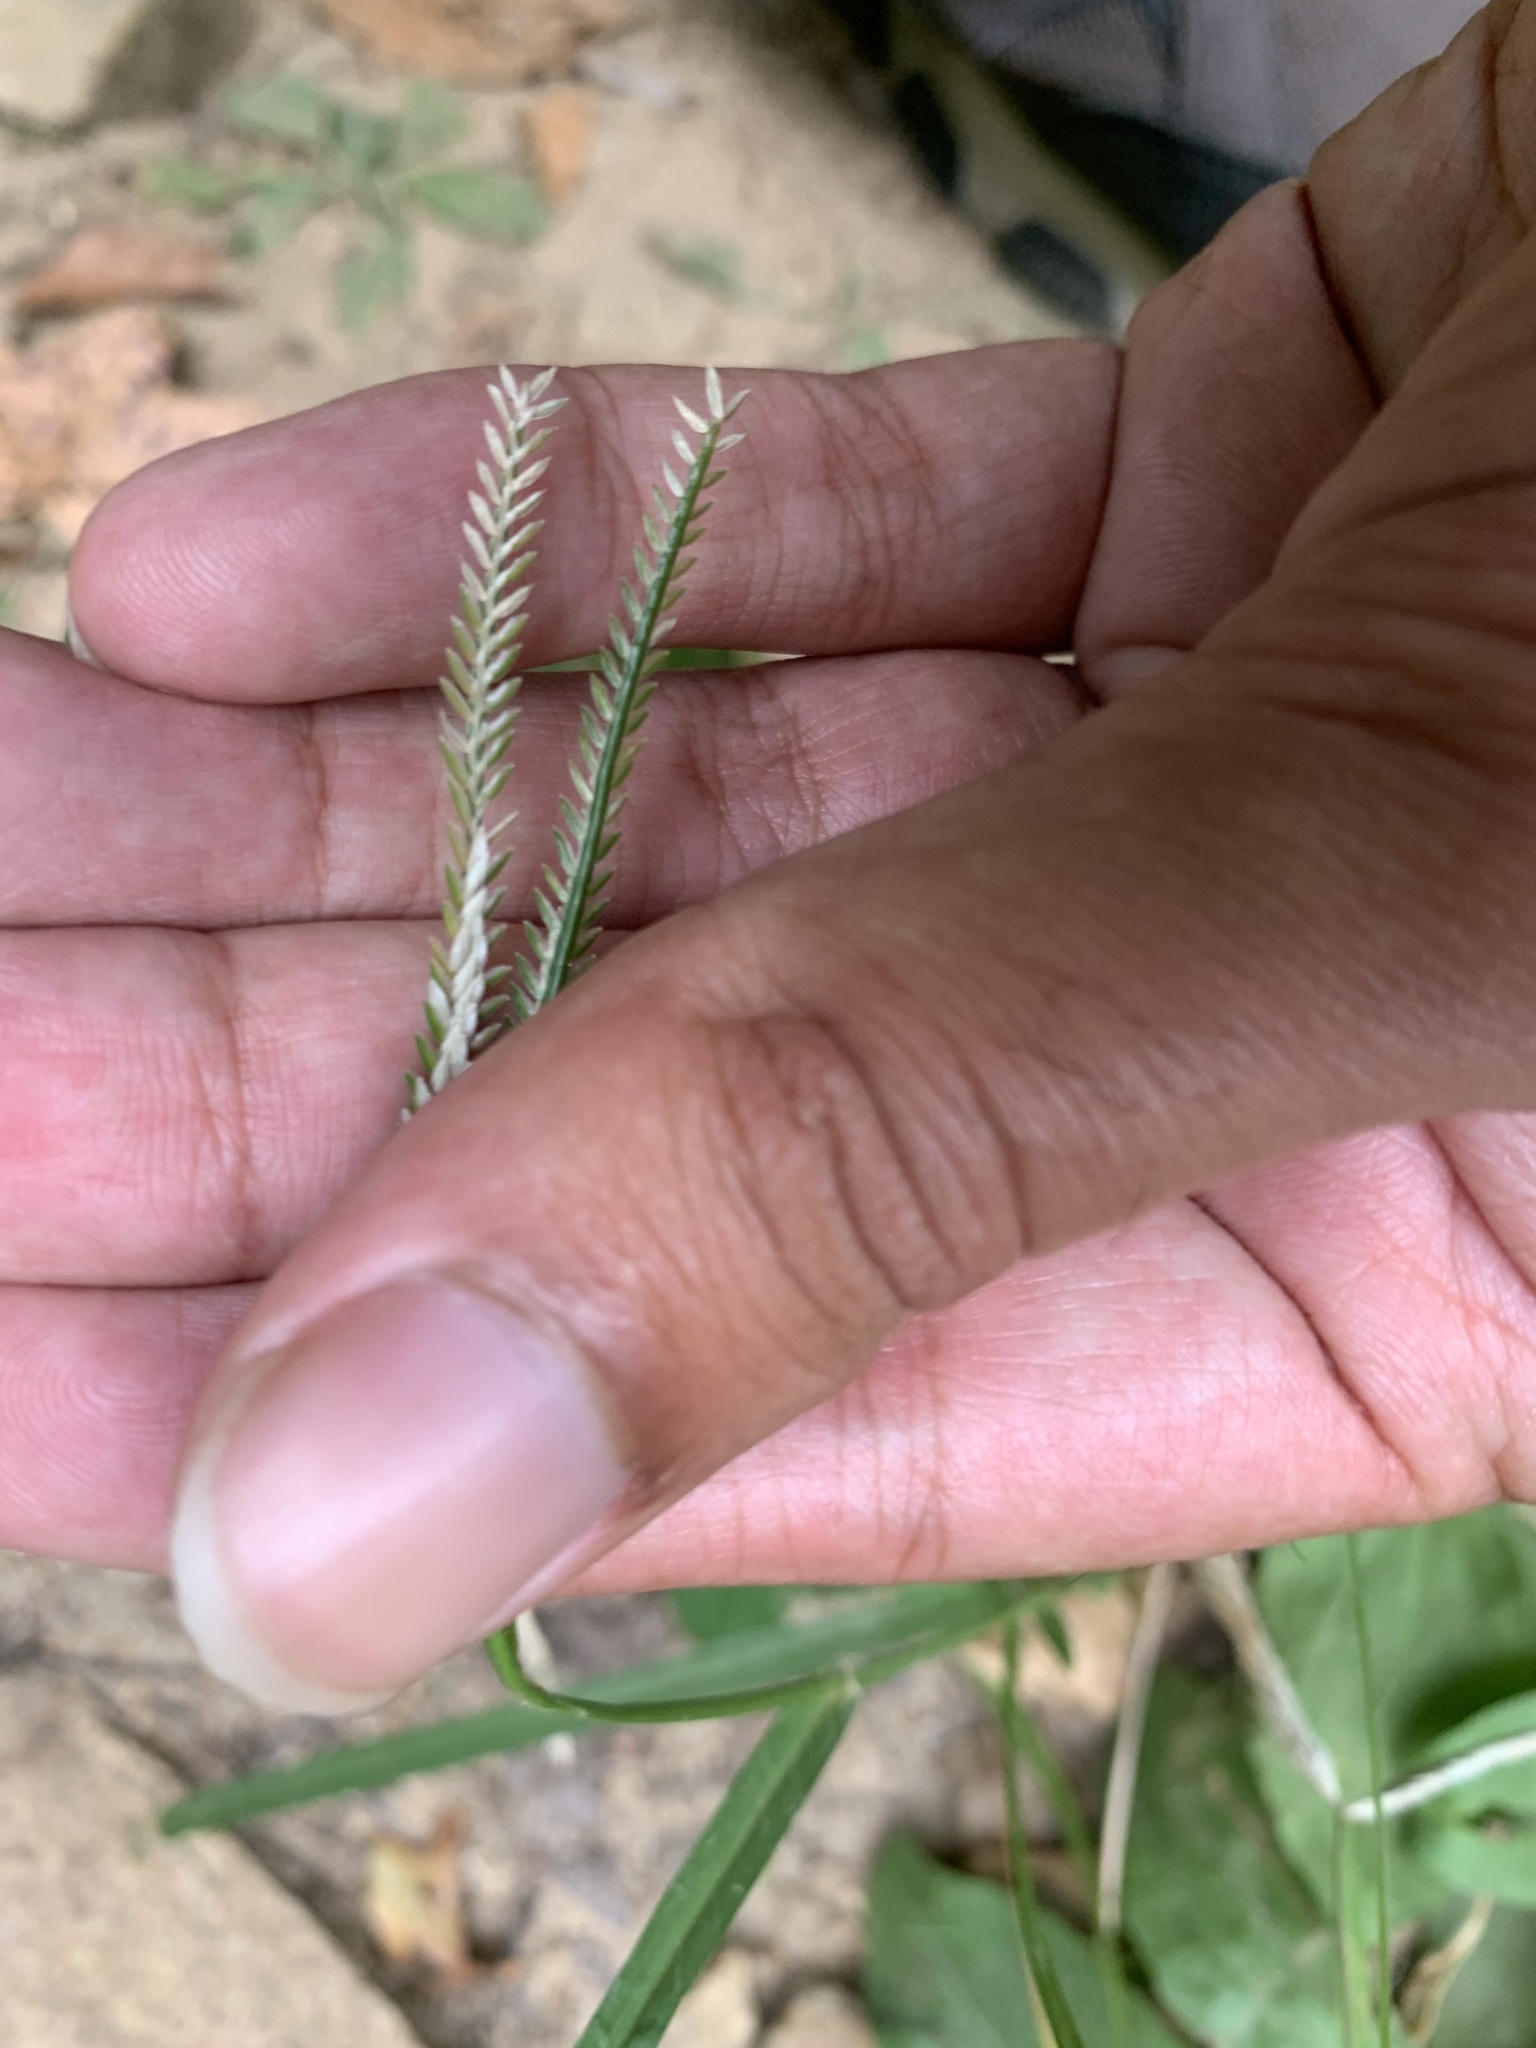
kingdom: Plantae
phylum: Tracheophyta
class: Liliopsida
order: Poales
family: Poaceae
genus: Eleusine
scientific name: Eleusine indica
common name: Yard-grass
